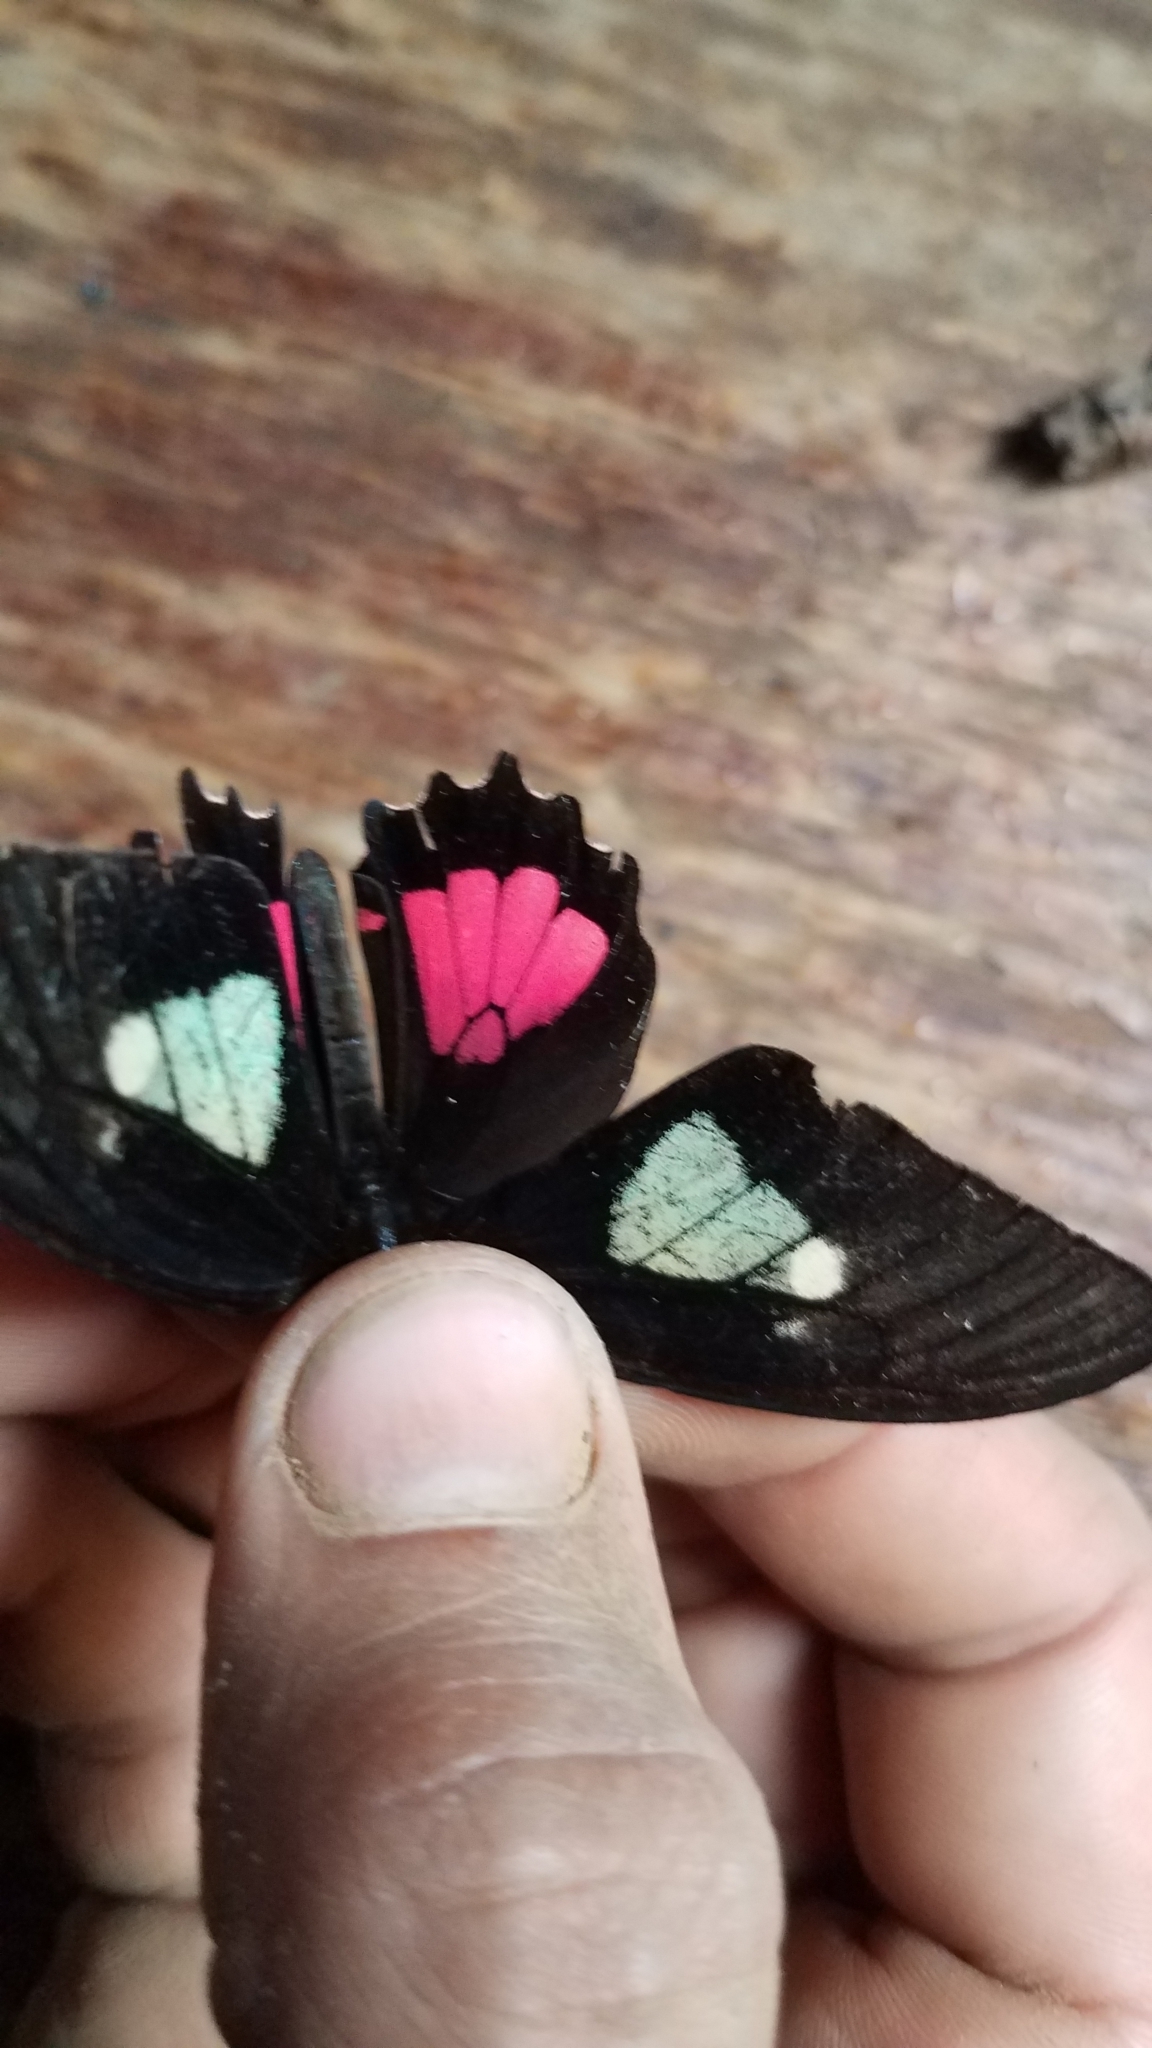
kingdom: Animalia
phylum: Arthropoda
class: Insecta
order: Lepidoptera
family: Papilionidae
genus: Parides
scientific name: Parides eurimedes
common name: True cattleheart
